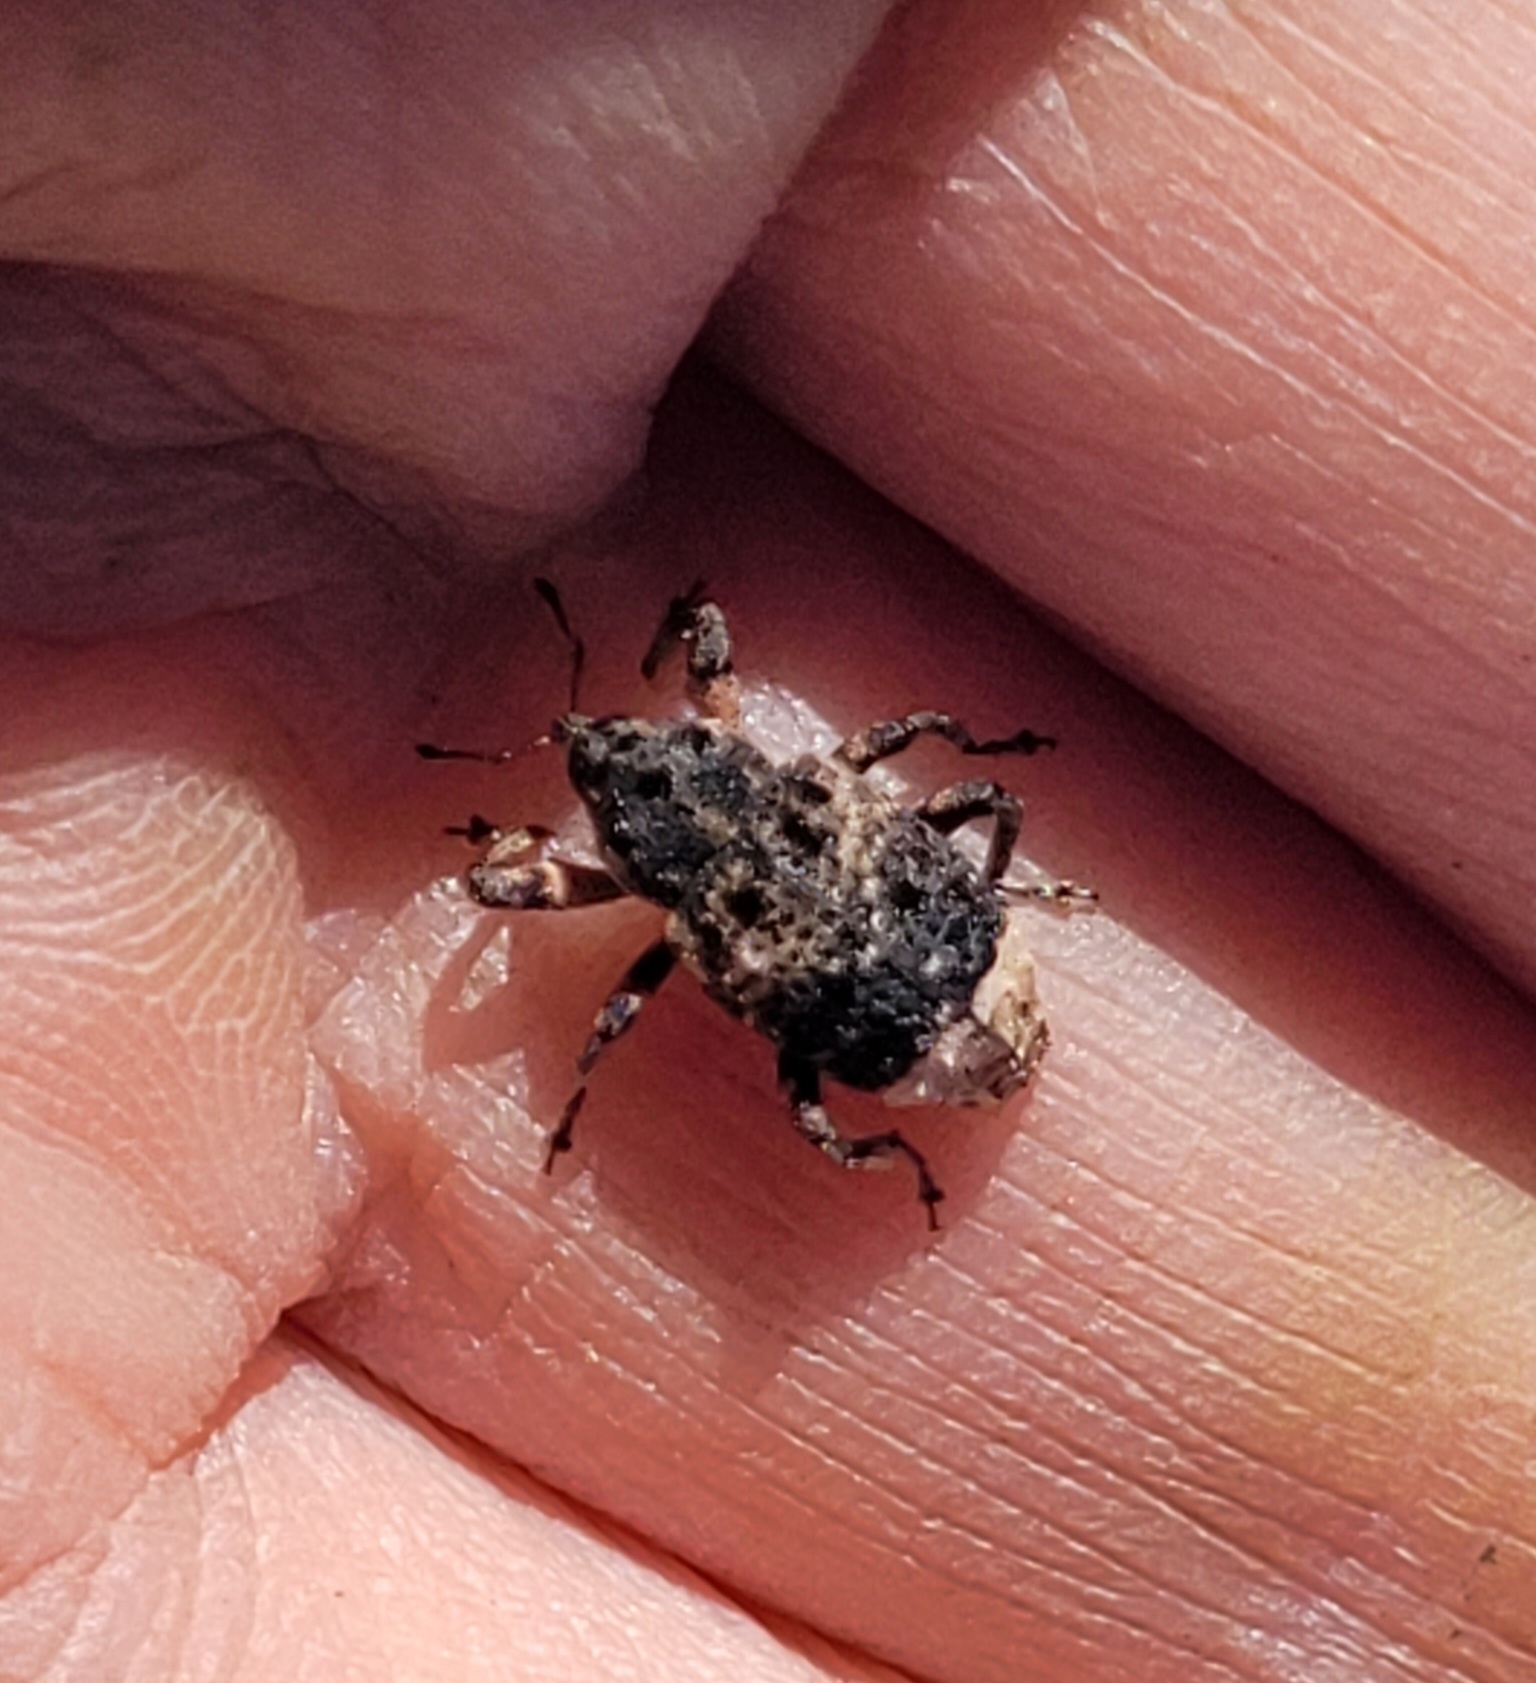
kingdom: Animalia
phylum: Arthropoda
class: Insecta
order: Coleoptera
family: Curculionidae
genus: Cryptorhynchus
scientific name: Cryptorhynchus lapathi
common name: Weevil
